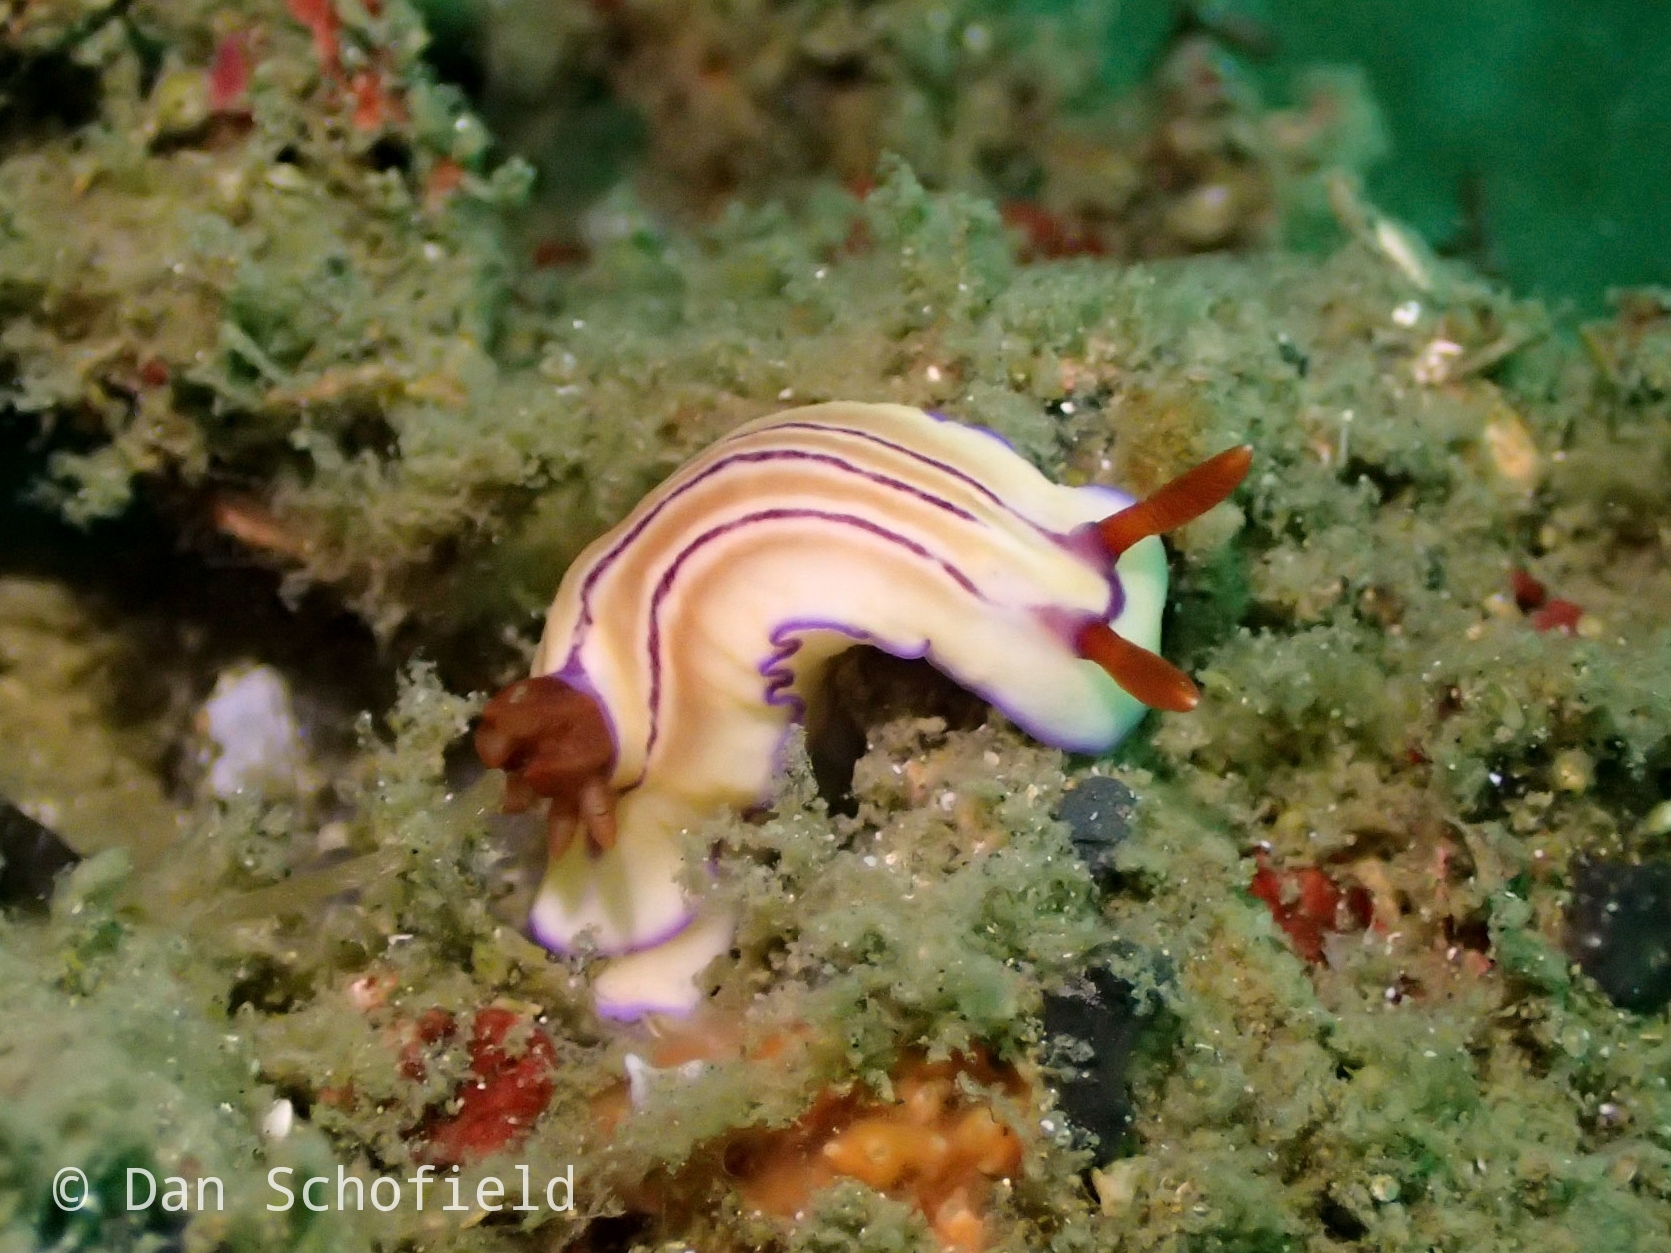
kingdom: Animalia
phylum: Mollusca
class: Gastropoda
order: Nudibranchia
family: Chromodorididae
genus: Hypselodoris
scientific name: Hypselodoris emma
